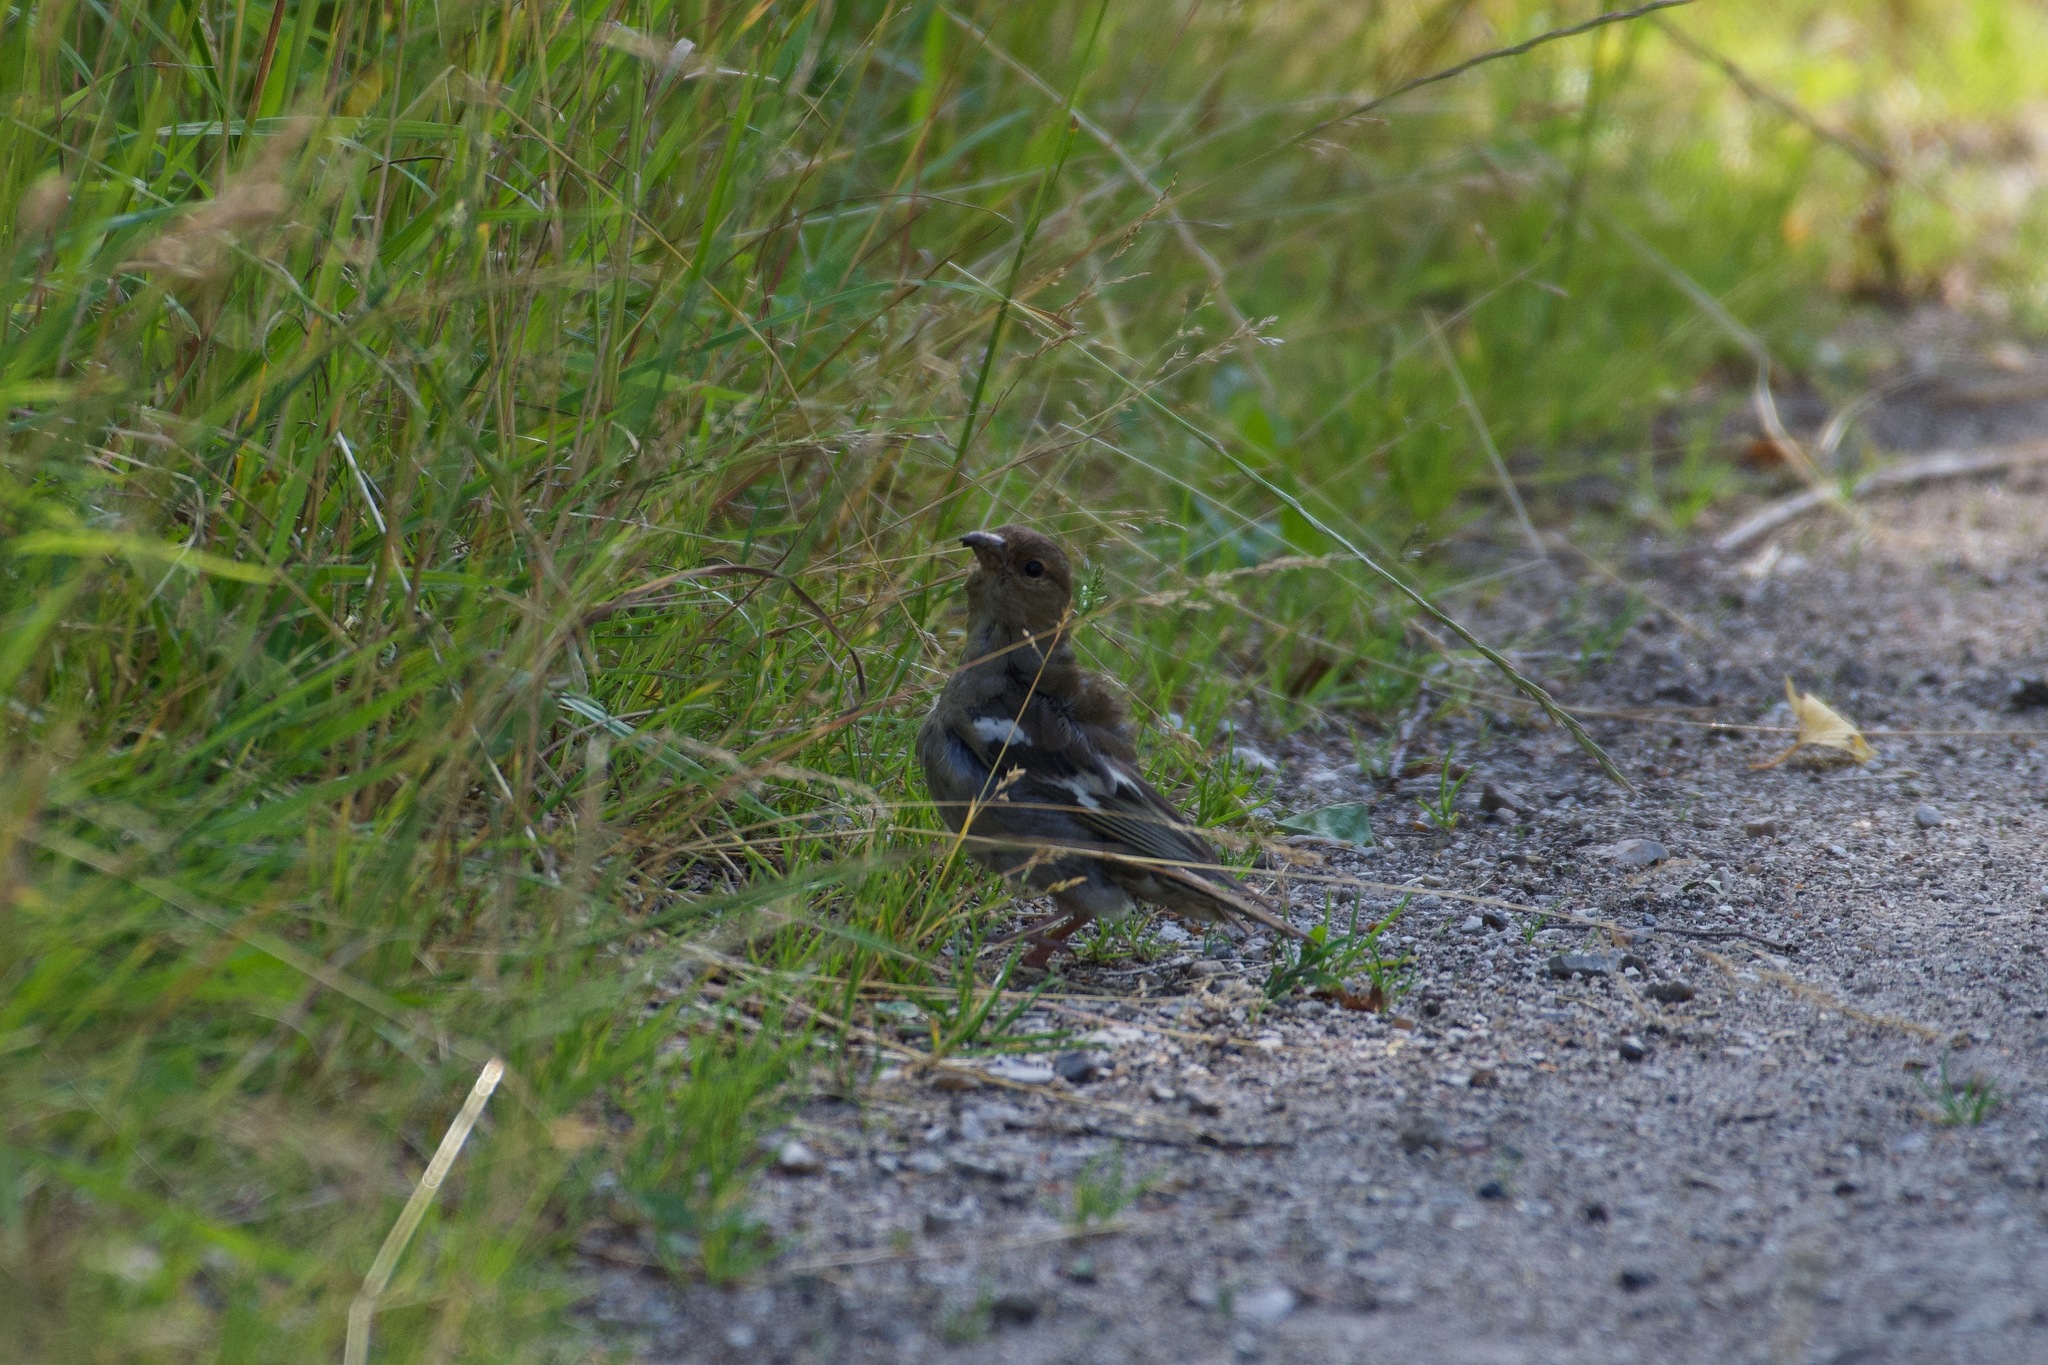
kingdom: Animalia
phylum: Chordata
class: Aves
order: Passeriformes
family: Fringillidae
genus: Fringilla
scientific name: Fringilla coelebs
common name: Common chaffinch
